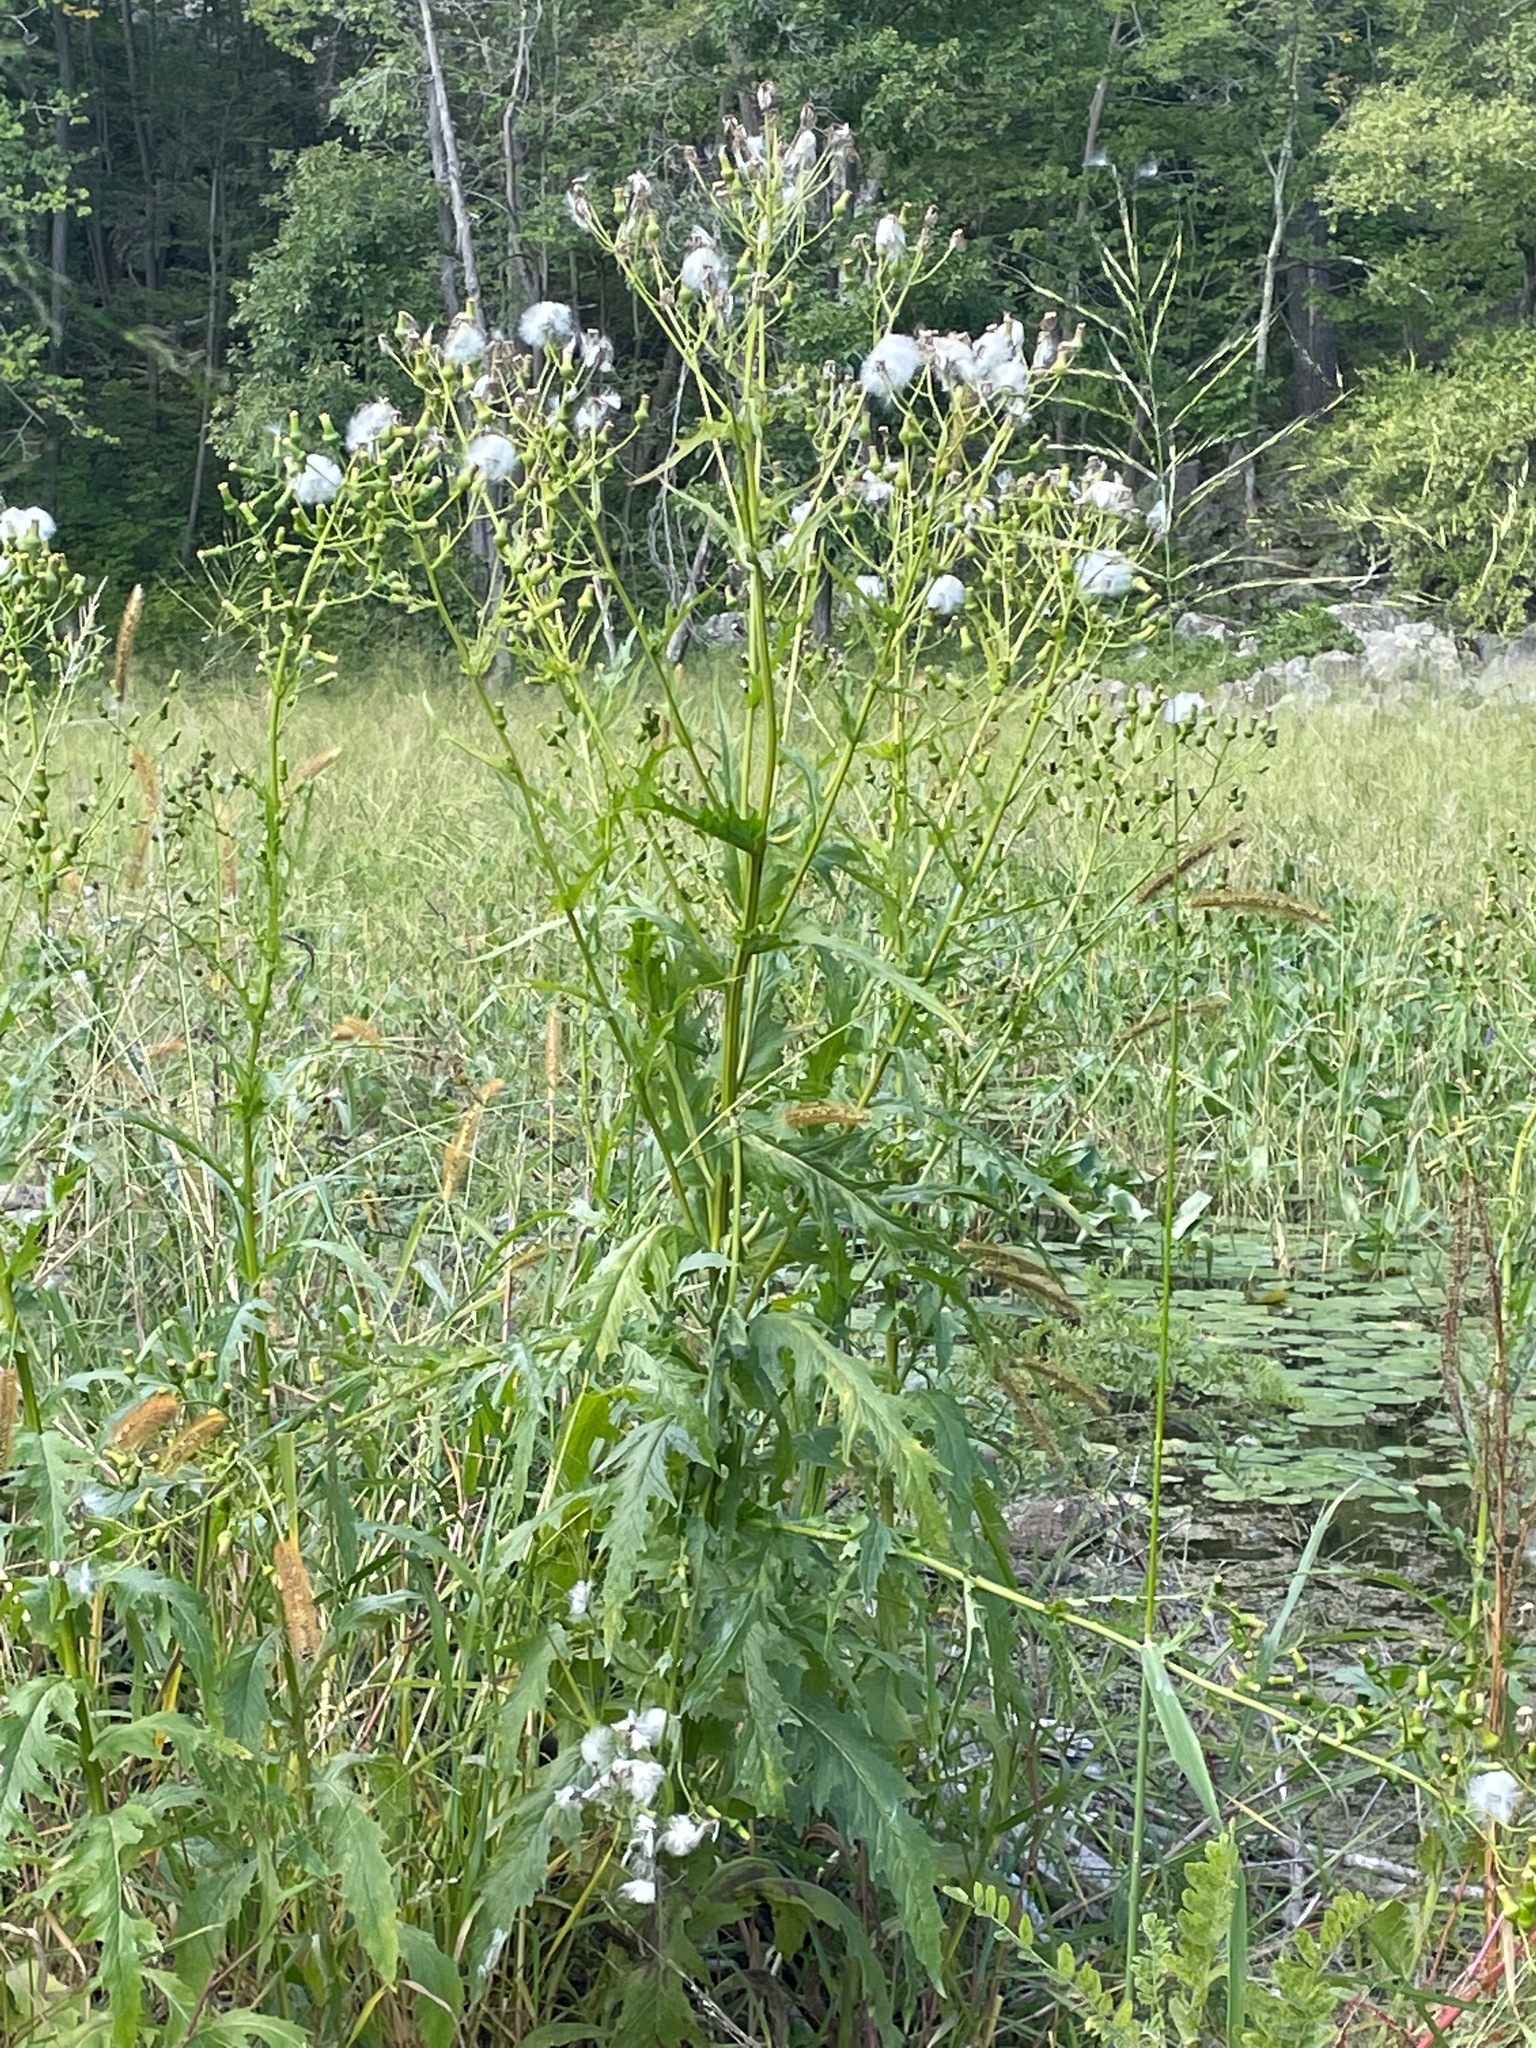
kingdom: Plantae
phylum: Tracheophyta
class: Magnoliopsida
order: Asterales
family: Asteraceae
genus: Erechtites
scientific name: Erechtites hieraciifolius
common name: American burnweed
